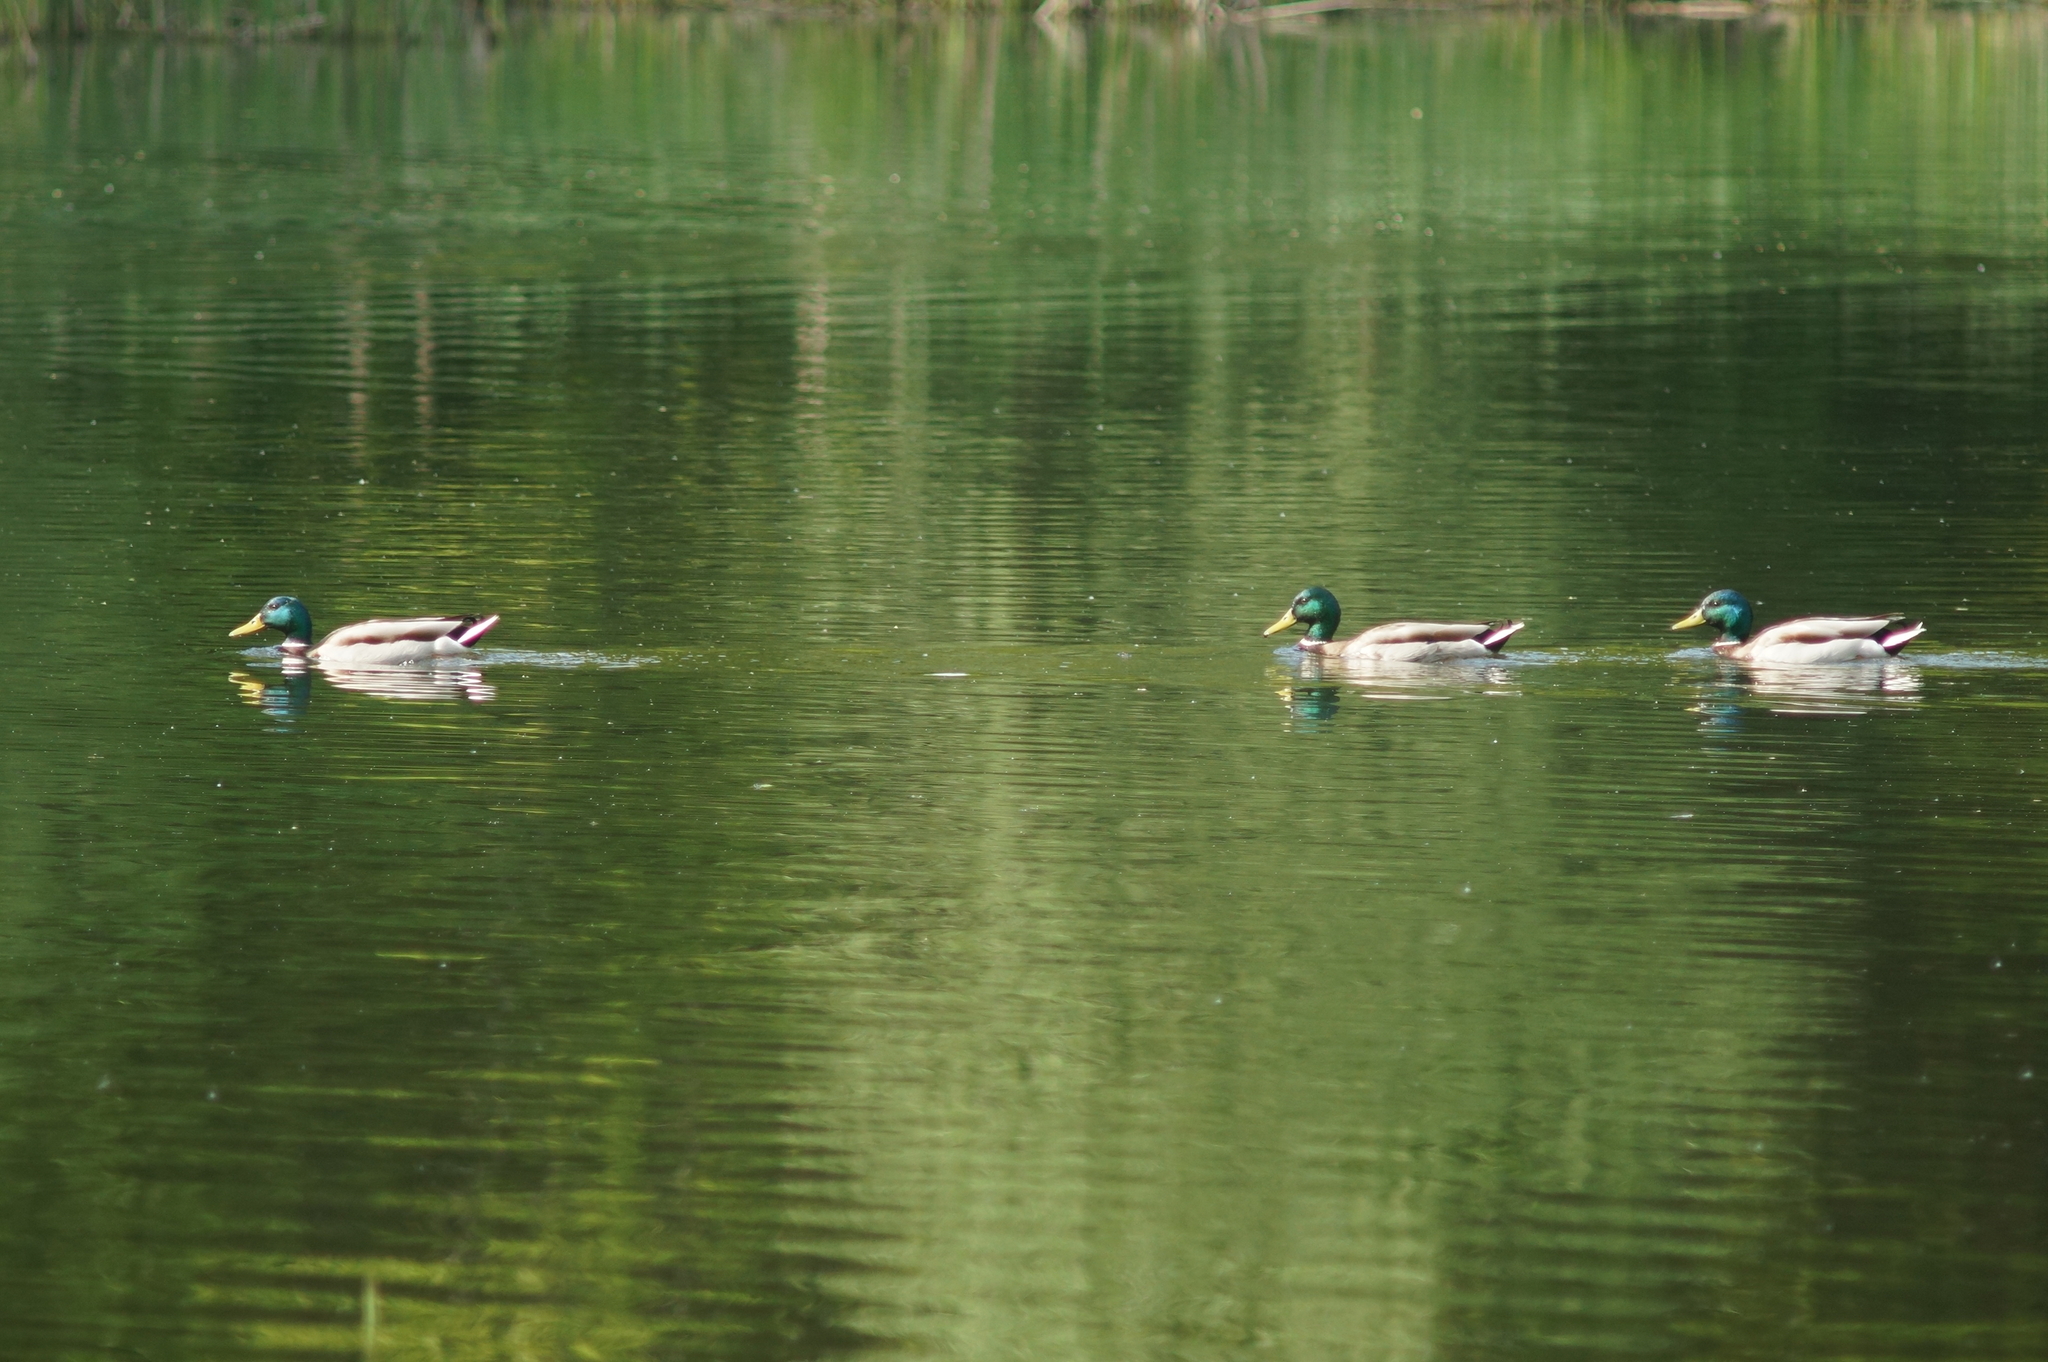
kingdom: Animalia
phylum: Chordata
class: Aves
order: Anseriformes
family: Anatidae
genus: Anas
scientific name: Anas platyrhynchos
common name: Mallard
